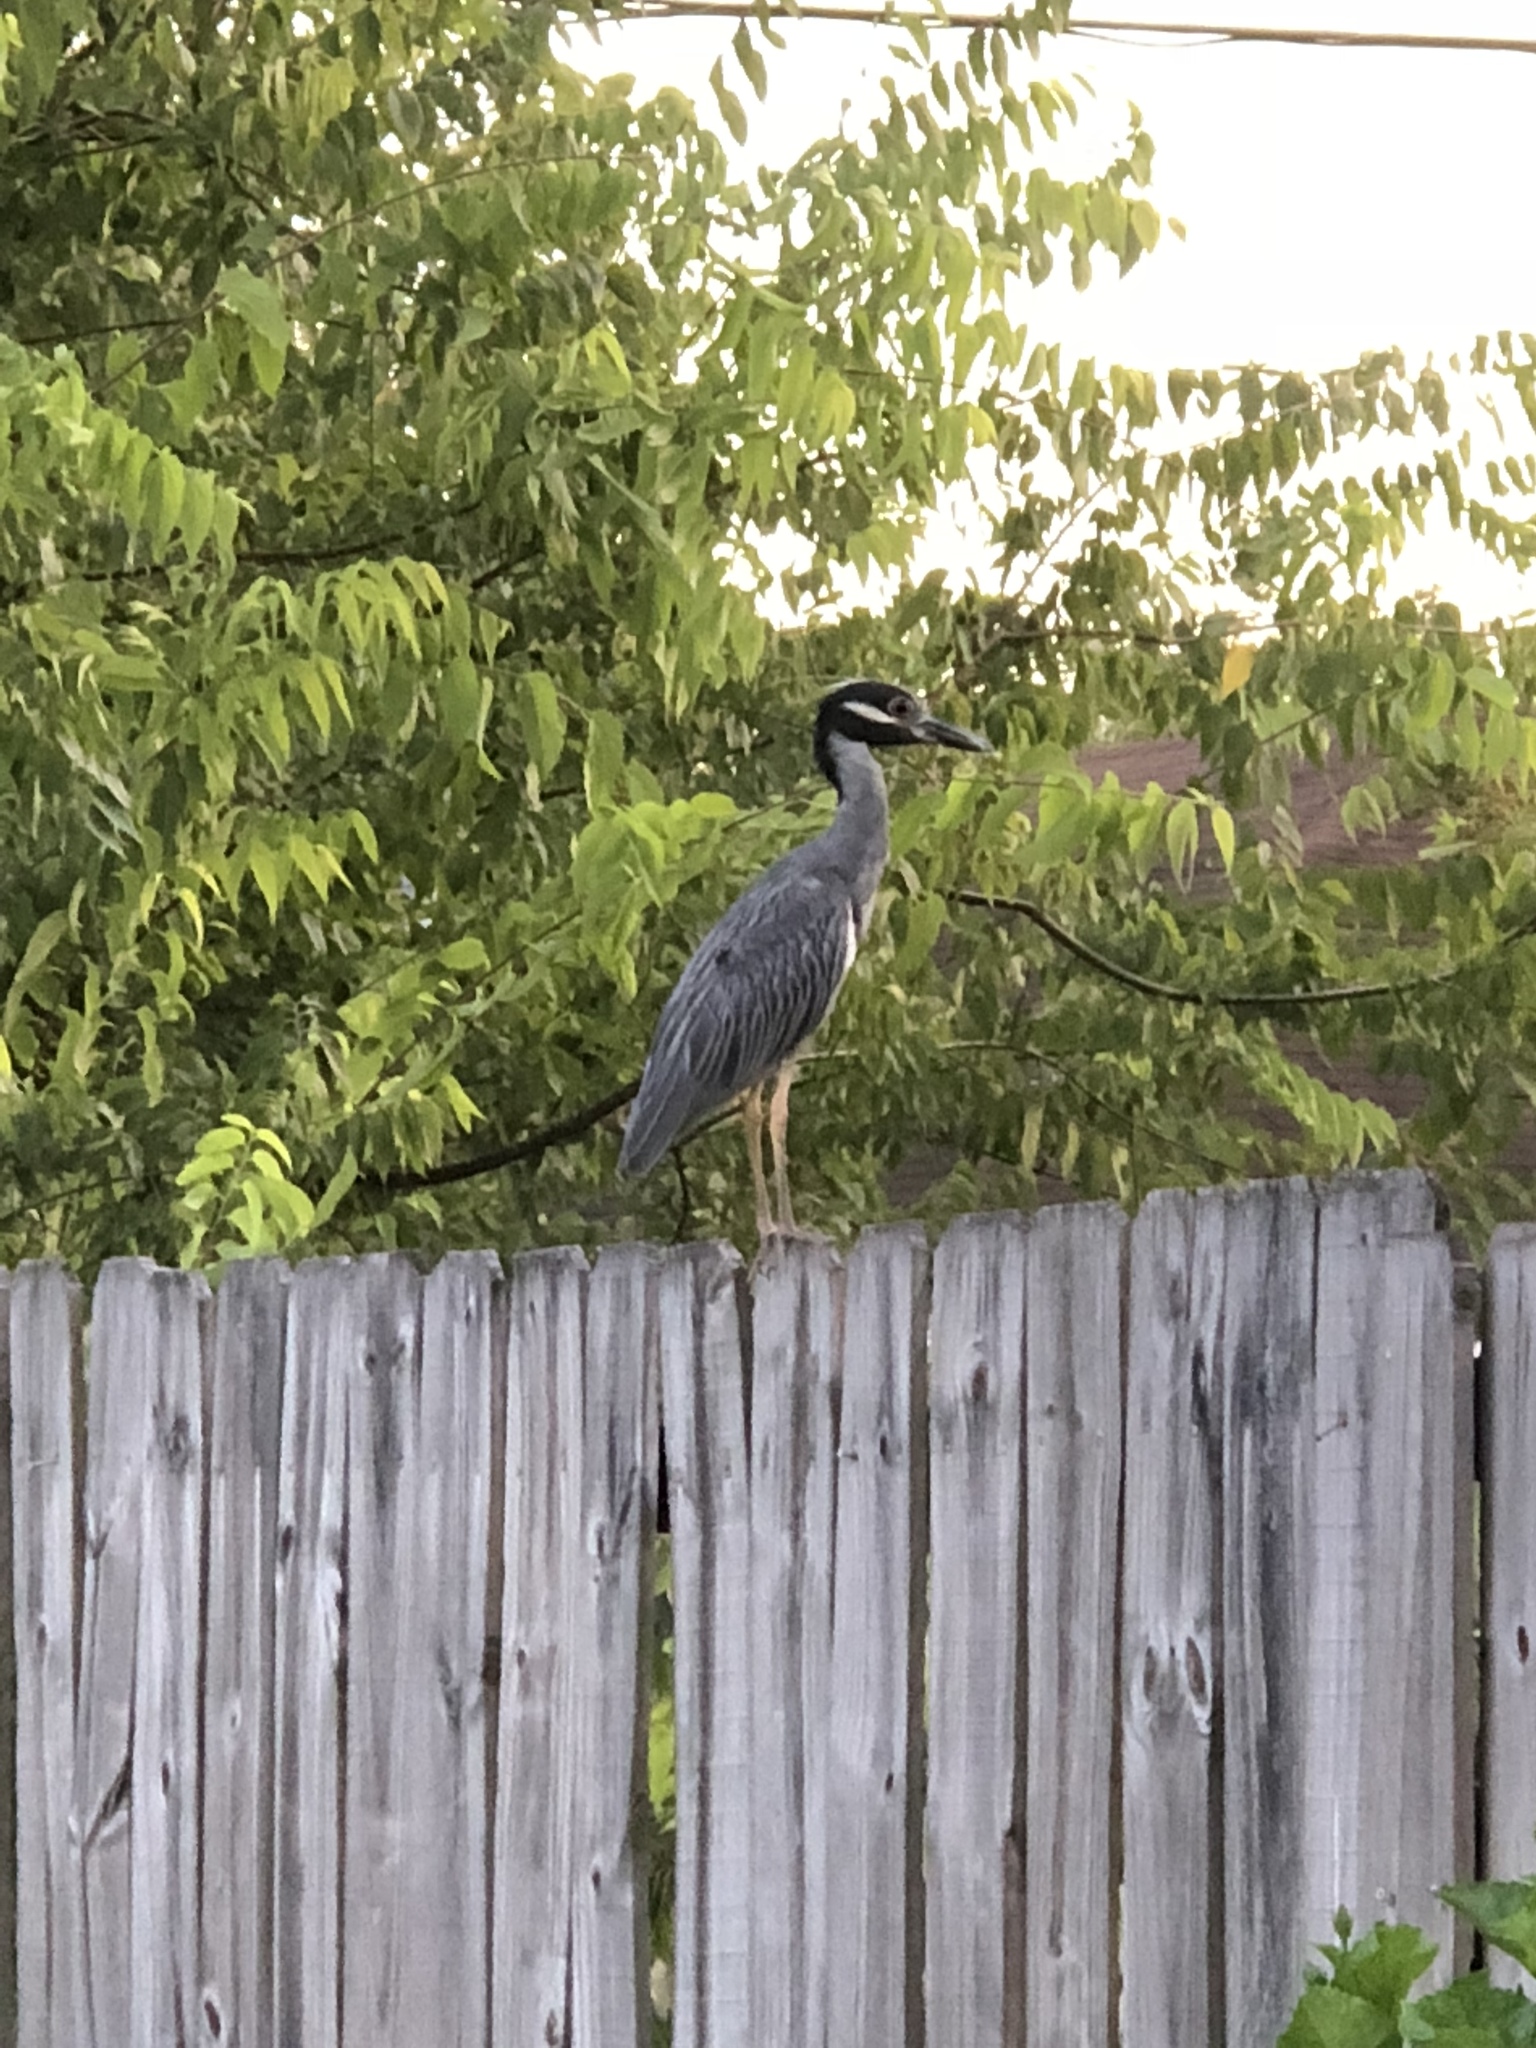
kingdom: Animalia
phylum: Chordata
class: Aves
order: Pelecaniformes
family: Ardeidae
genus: Nyctanassa
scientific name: Nyctanassa violacea
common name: Yellow-crowned night heron
